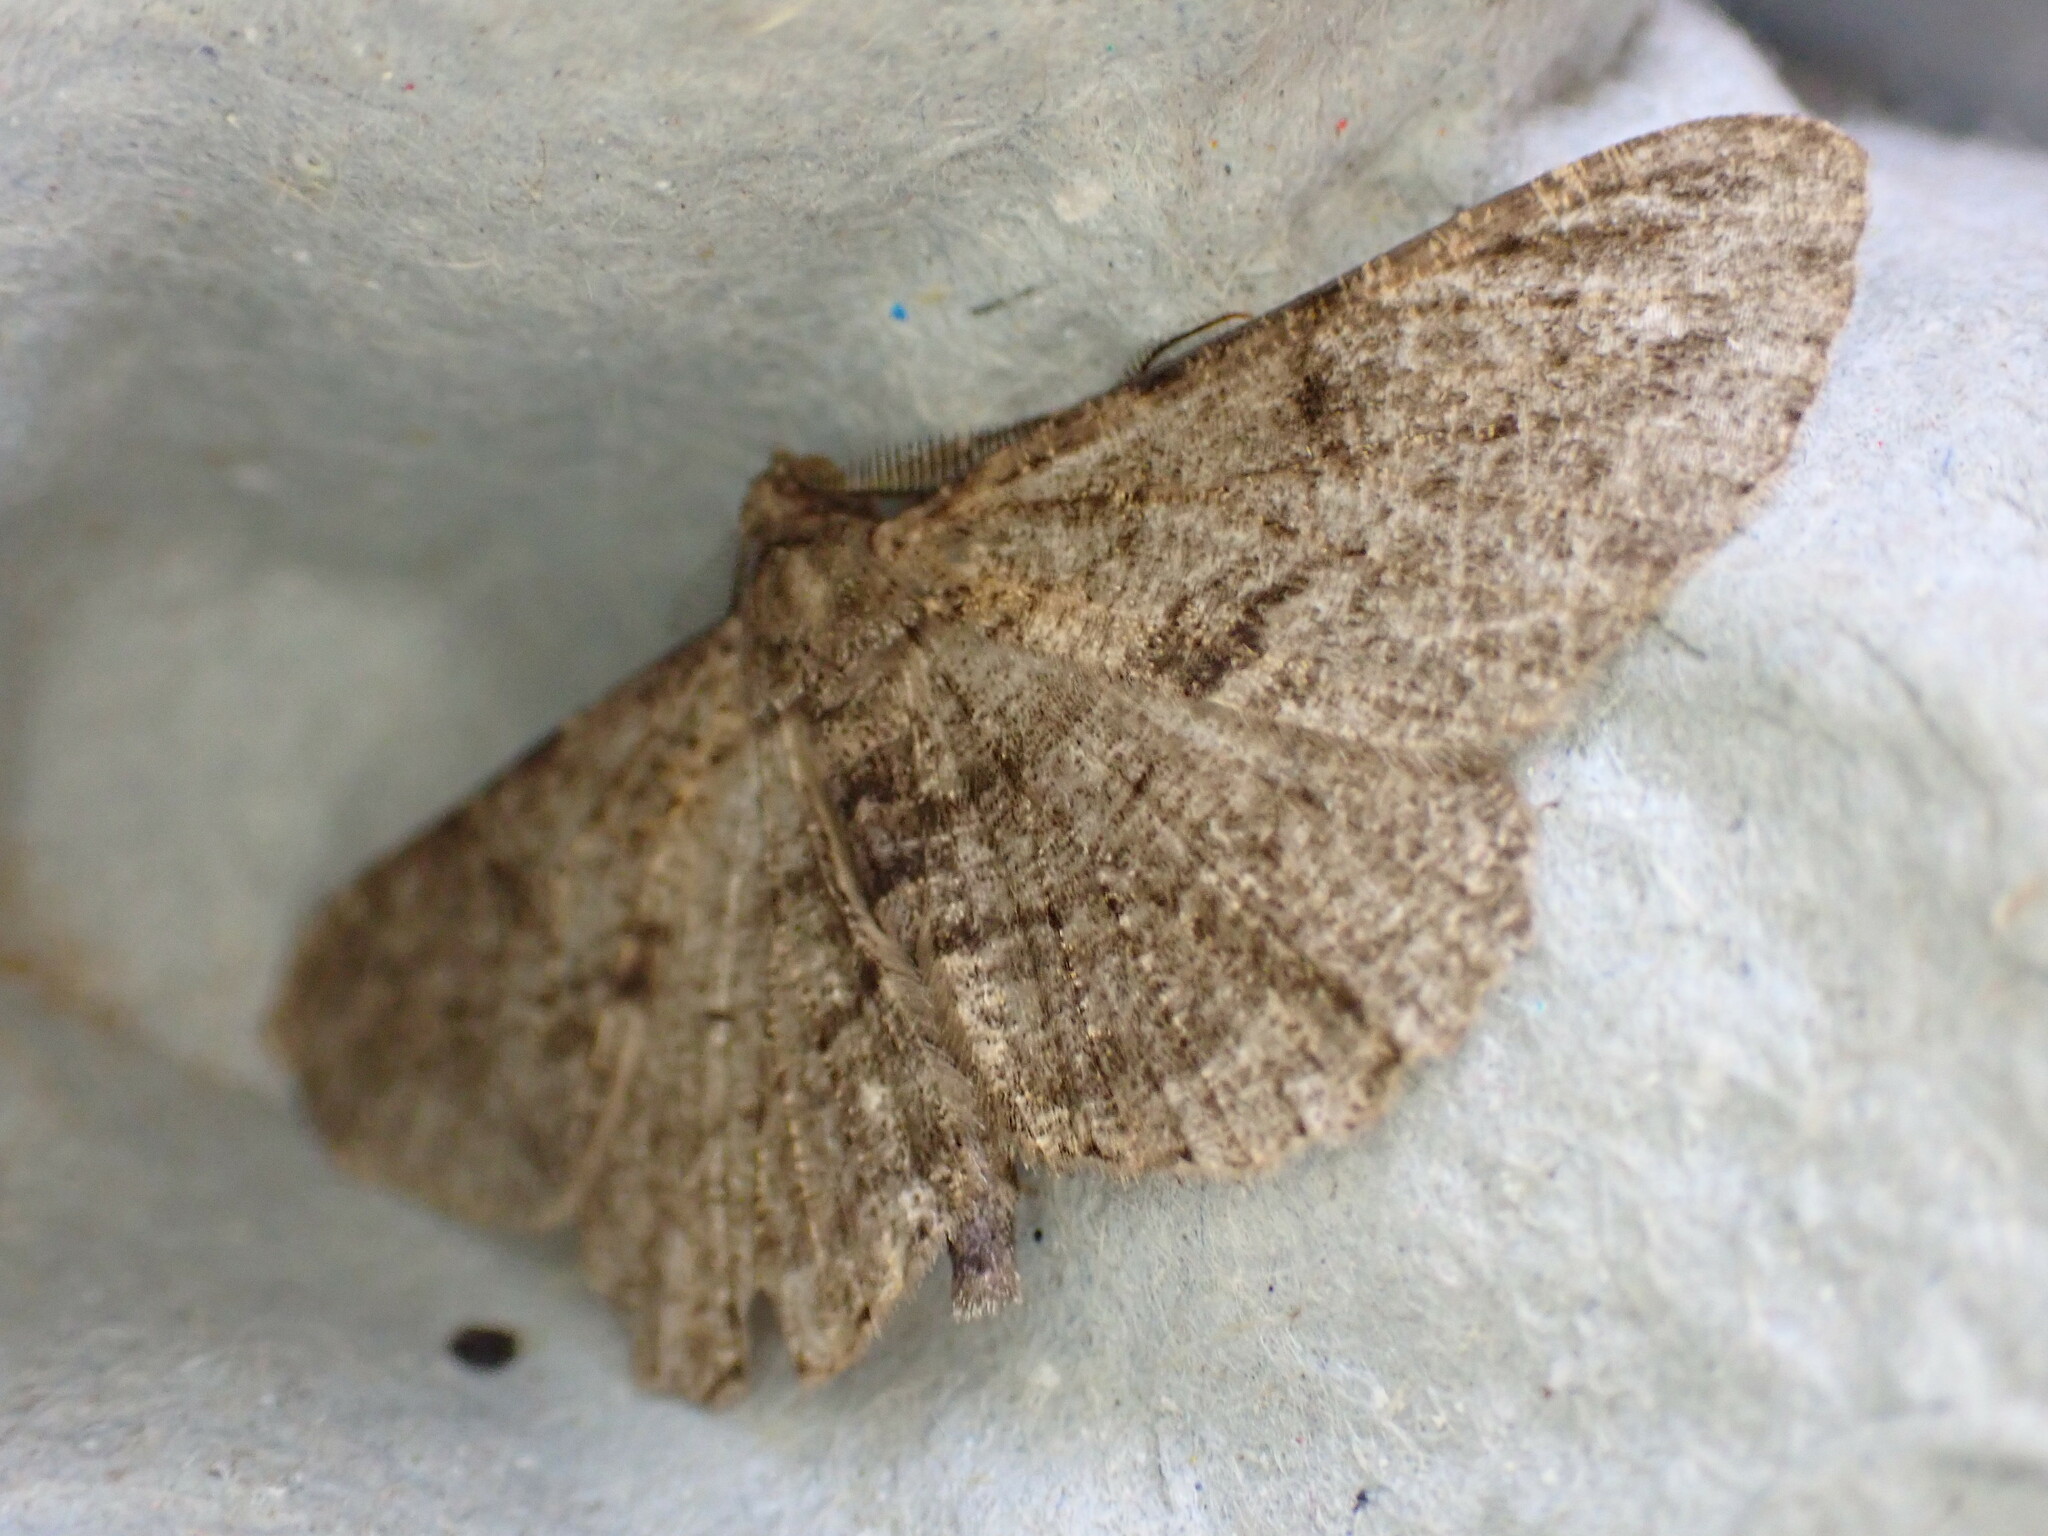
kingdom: Animalia
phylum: Arthropoda
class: Insecta
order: Lepidoptera
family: Geometridae
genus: Peribatodes
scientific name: Peribatodes rhomboidaria
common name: Willow beauty
